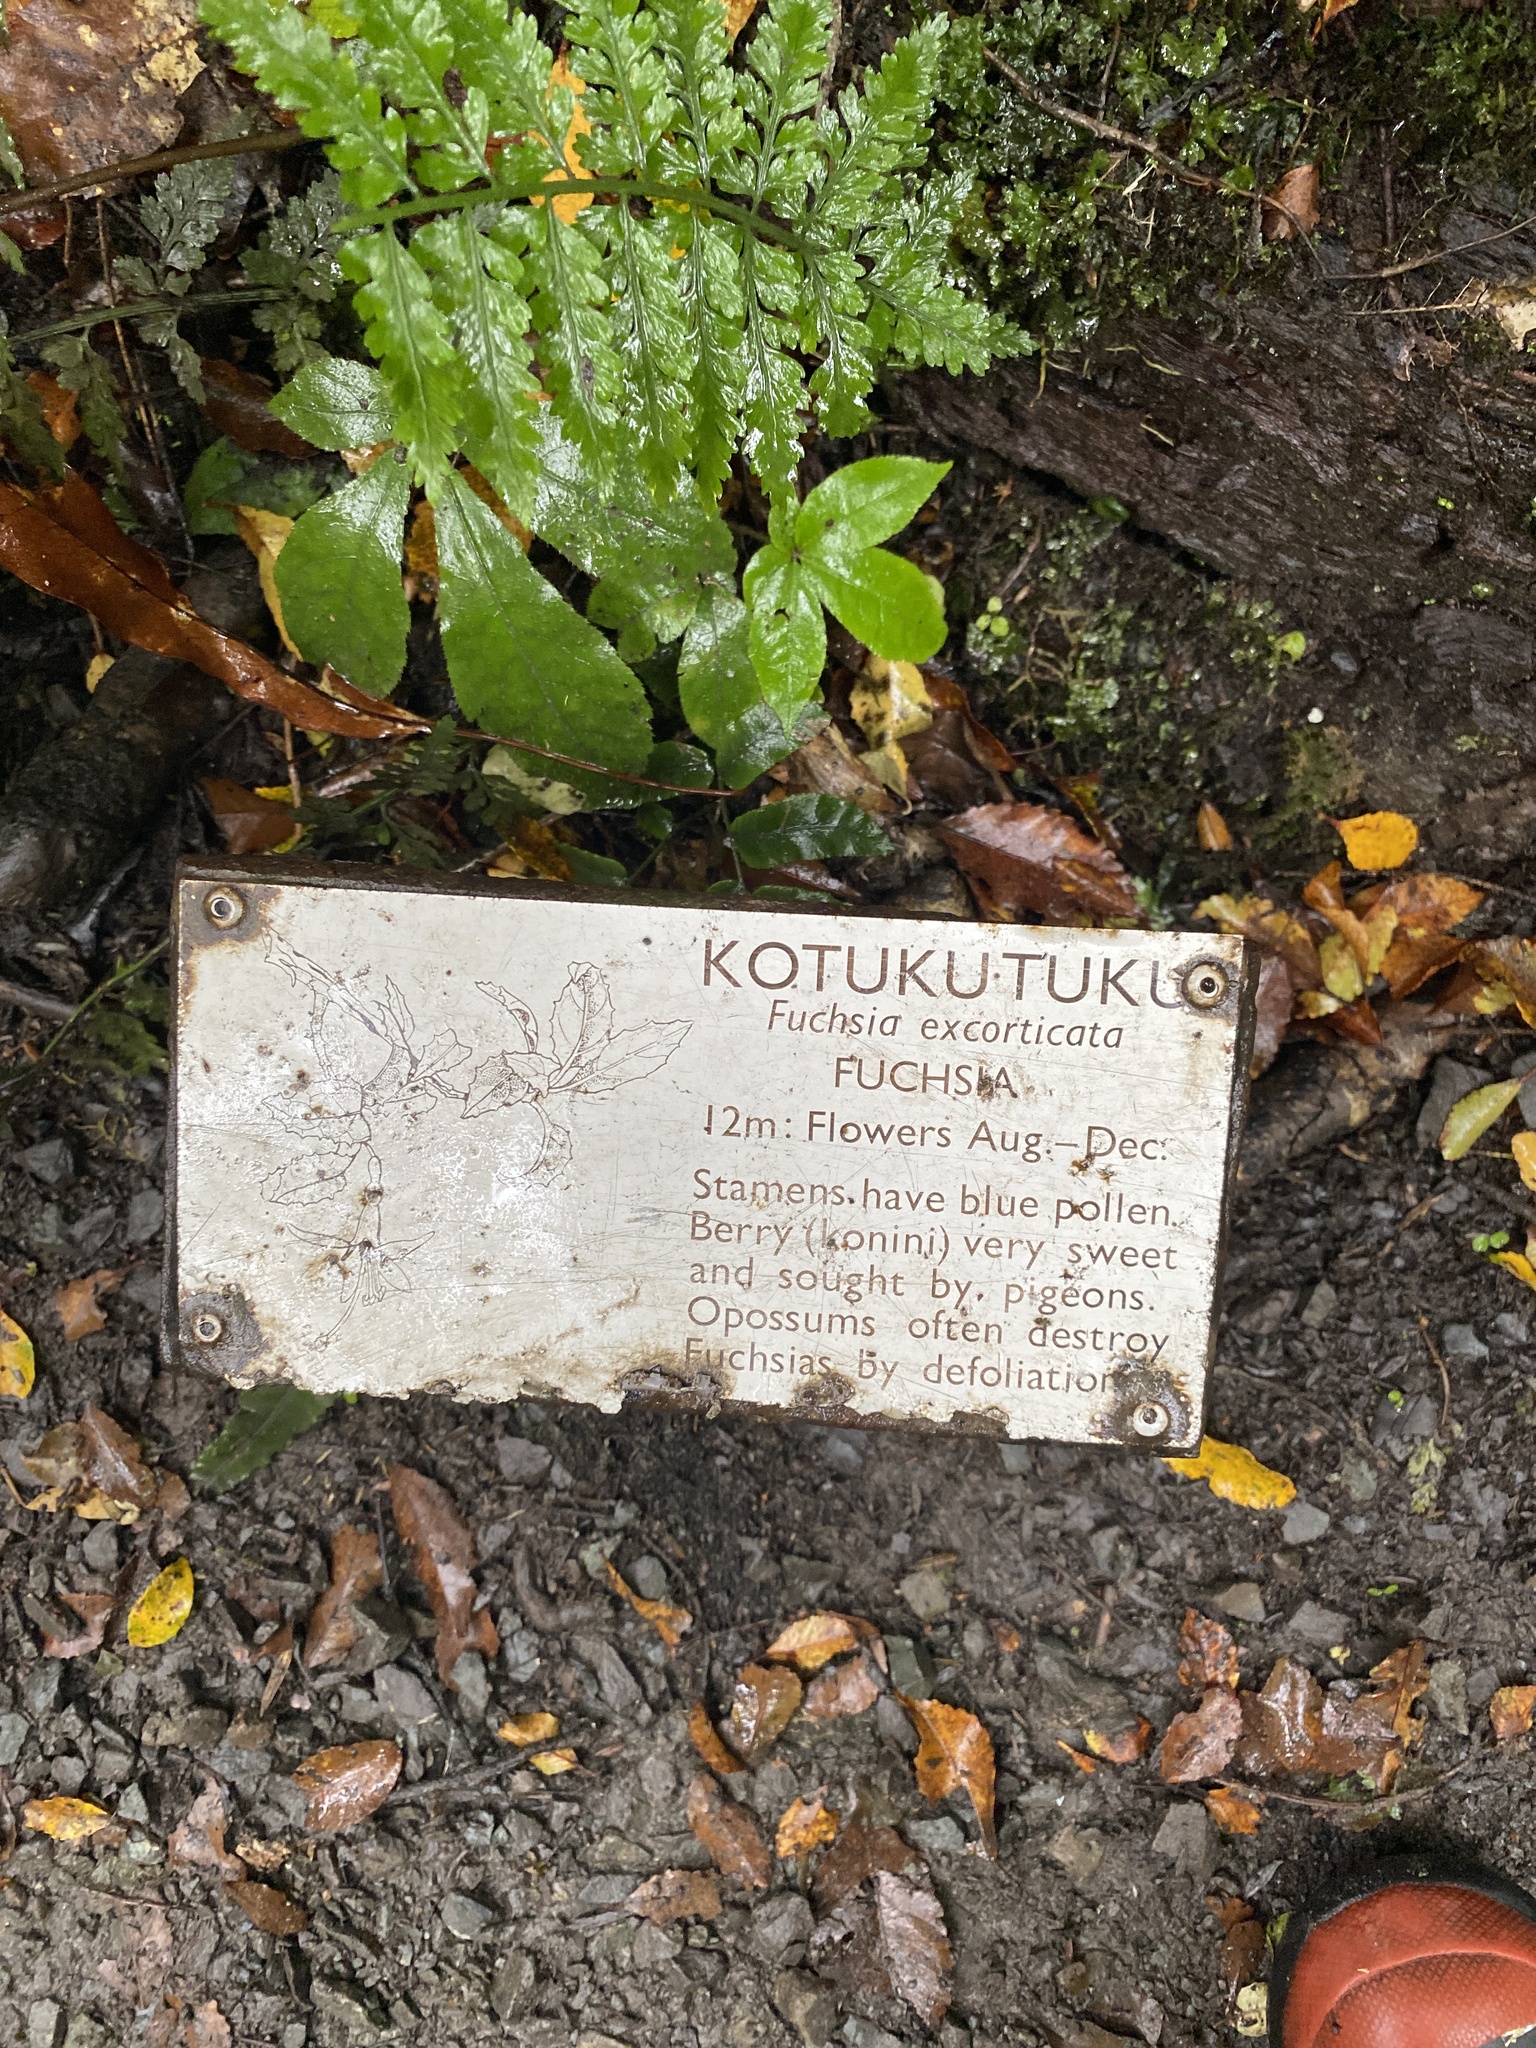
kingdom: Plantae
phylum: Tracheophyta
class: Magnoliopsida
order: Myrtales
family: Onagraceae
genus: Fuchsia
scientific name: Fuchsia excorticata
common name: Tree fuchsia
